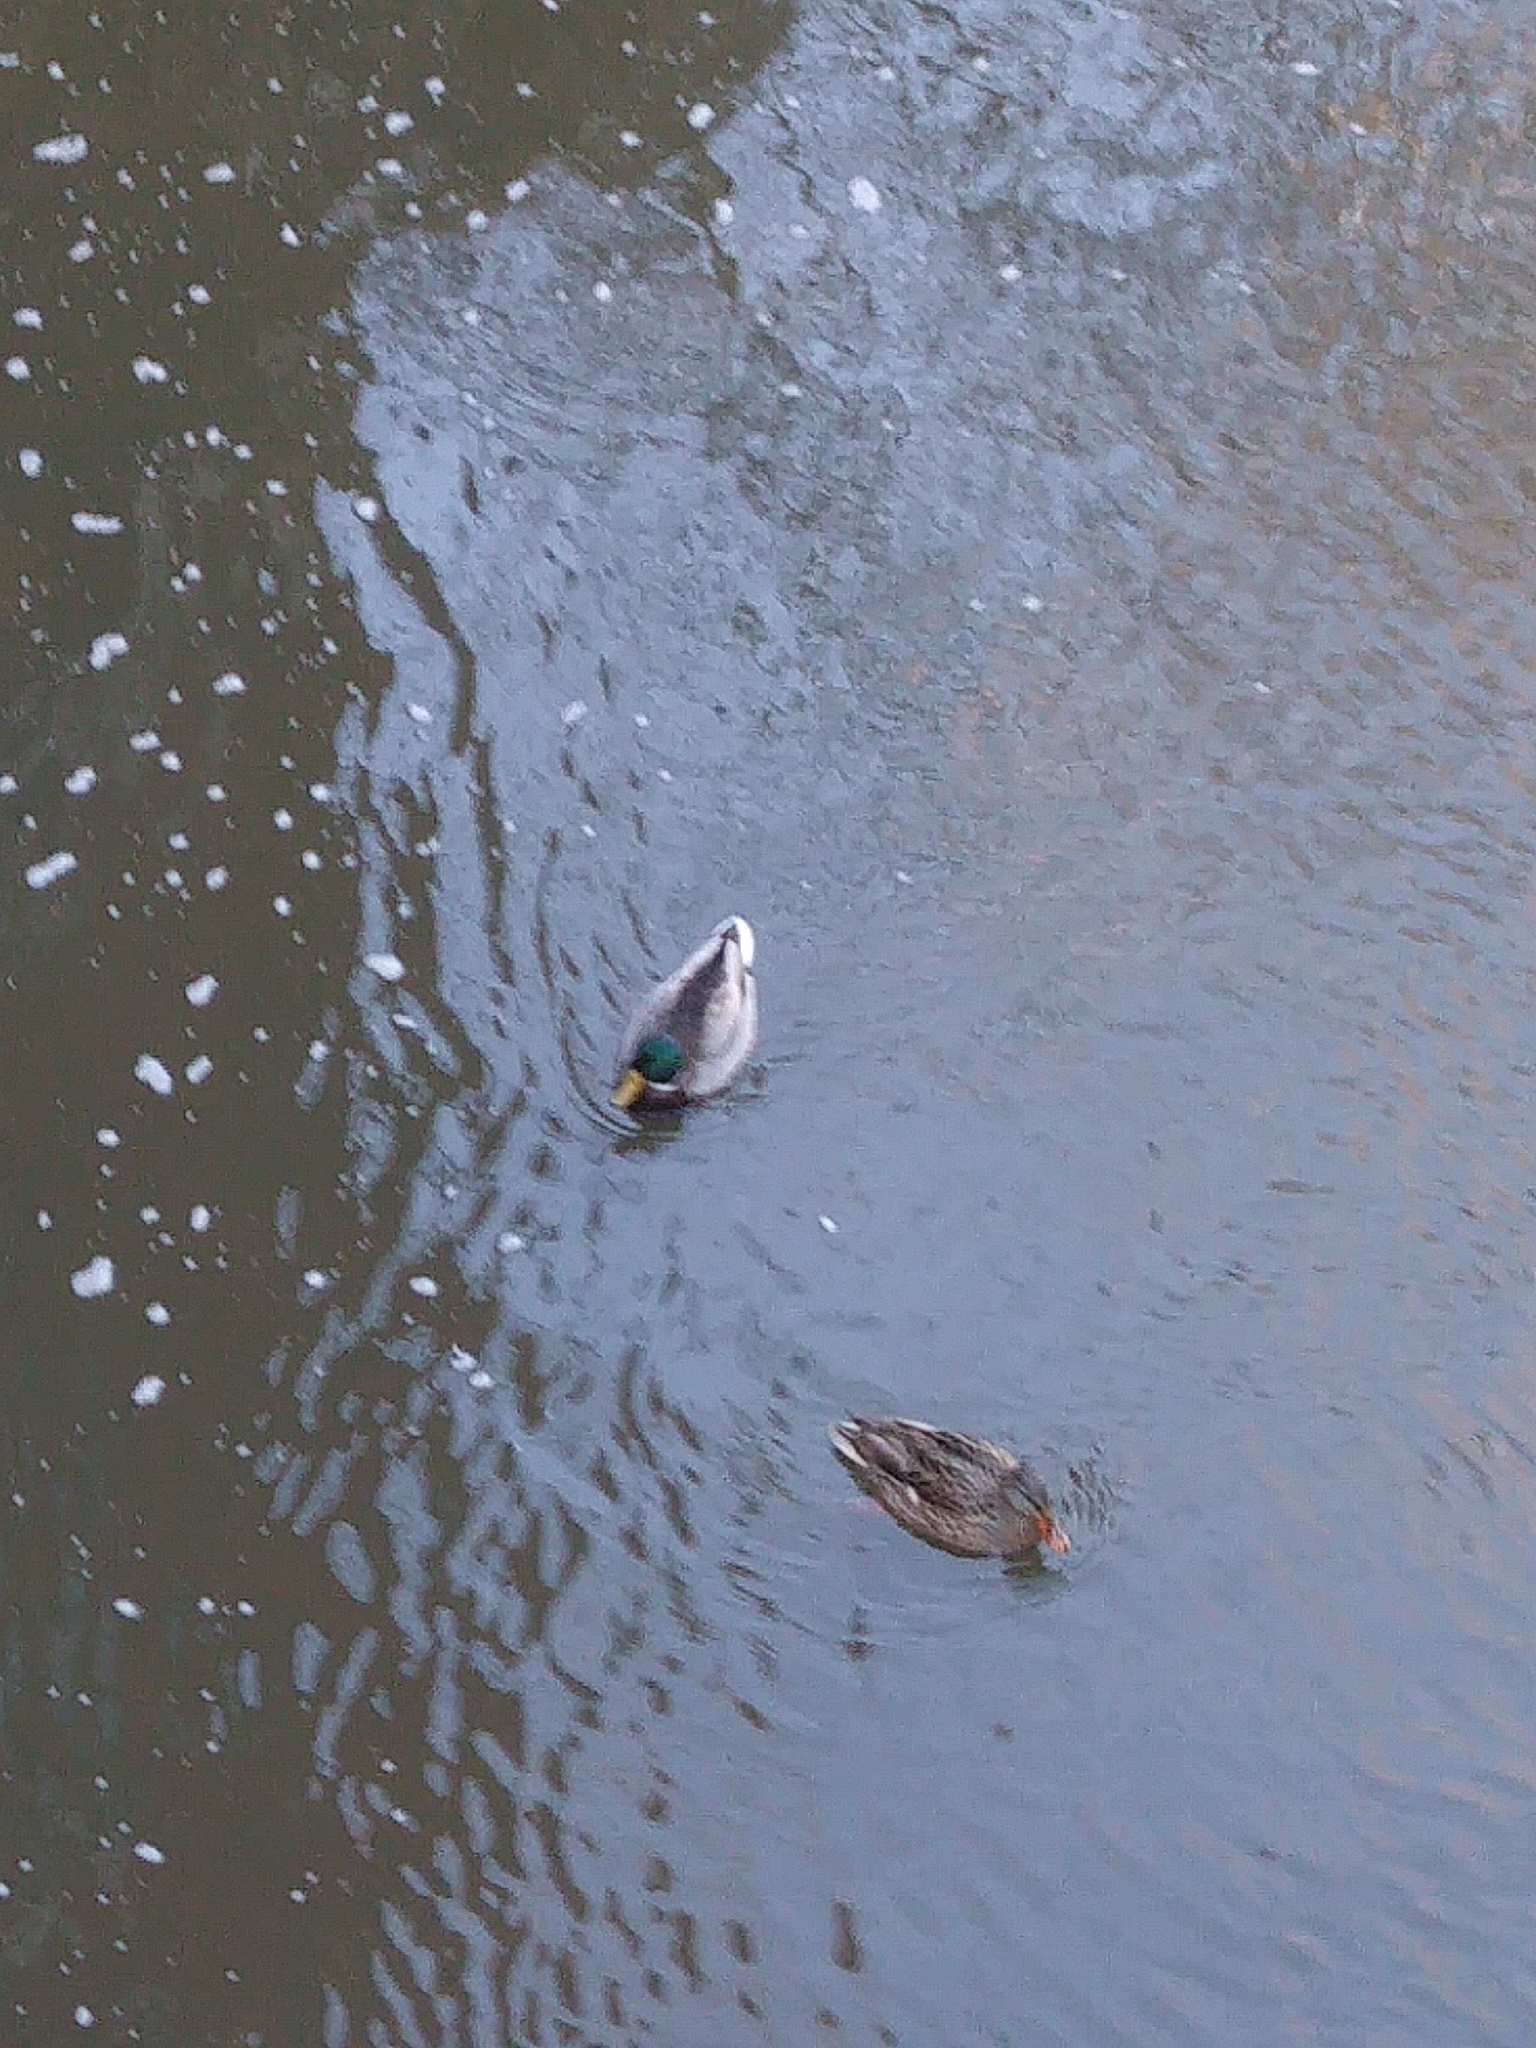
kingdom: Animalia
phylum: Chordata
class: Aves
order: Anseriformes
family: Anatidae
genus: Anas
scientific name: Anas platyrhynchos
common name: Mallard
